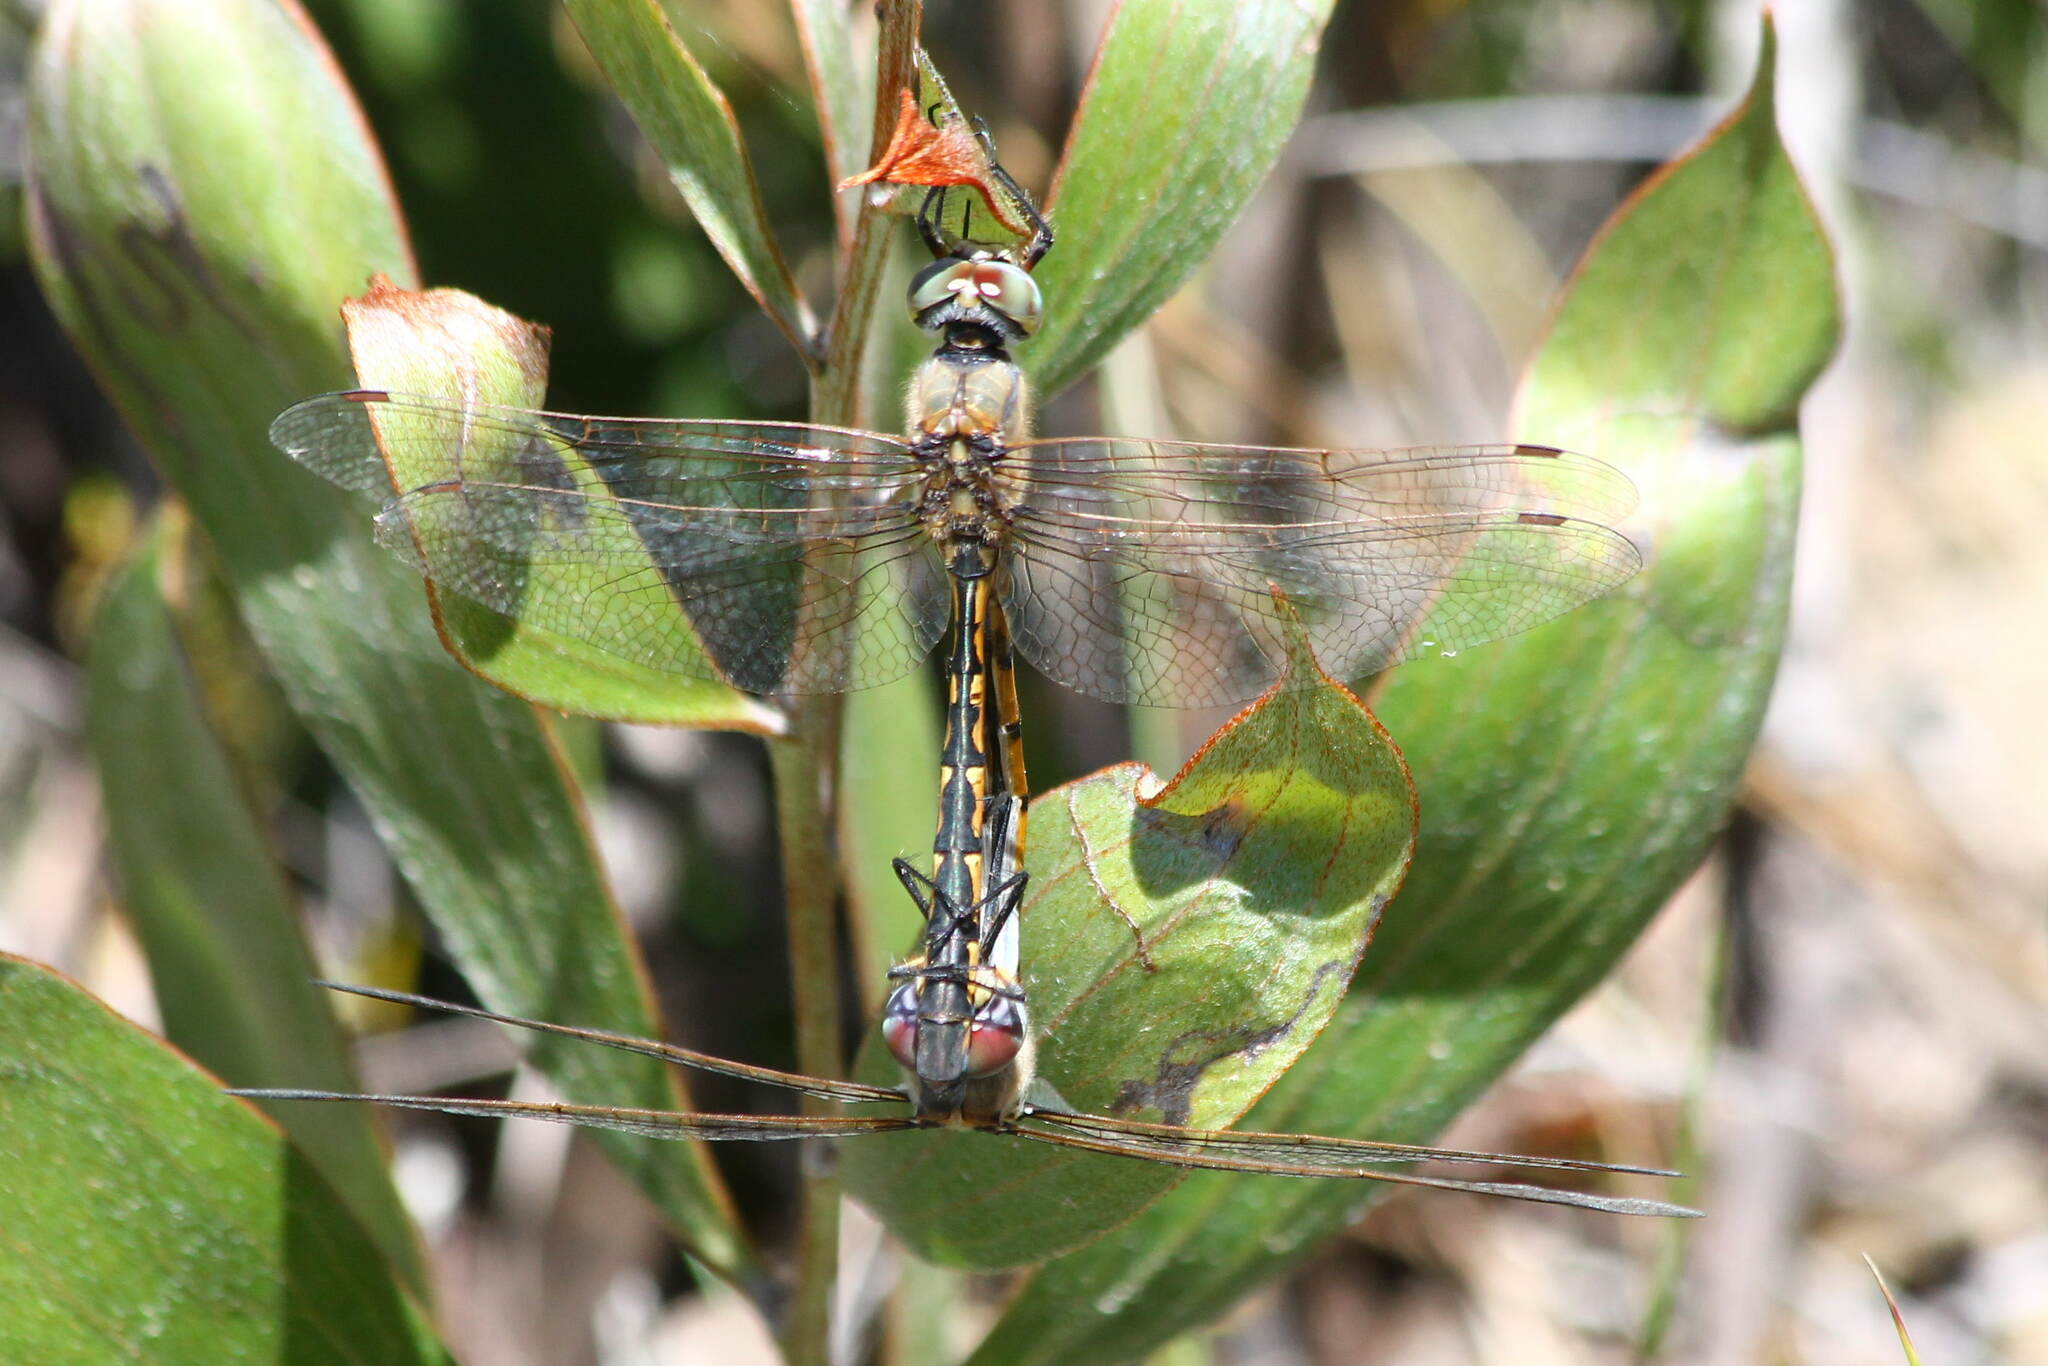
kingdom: Animalia
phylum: Arthropoda
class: Insecta
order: Odonata
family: Corduliidae
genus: Hemicordulia
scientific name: Hemicordulia tau
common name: Tau emerald
